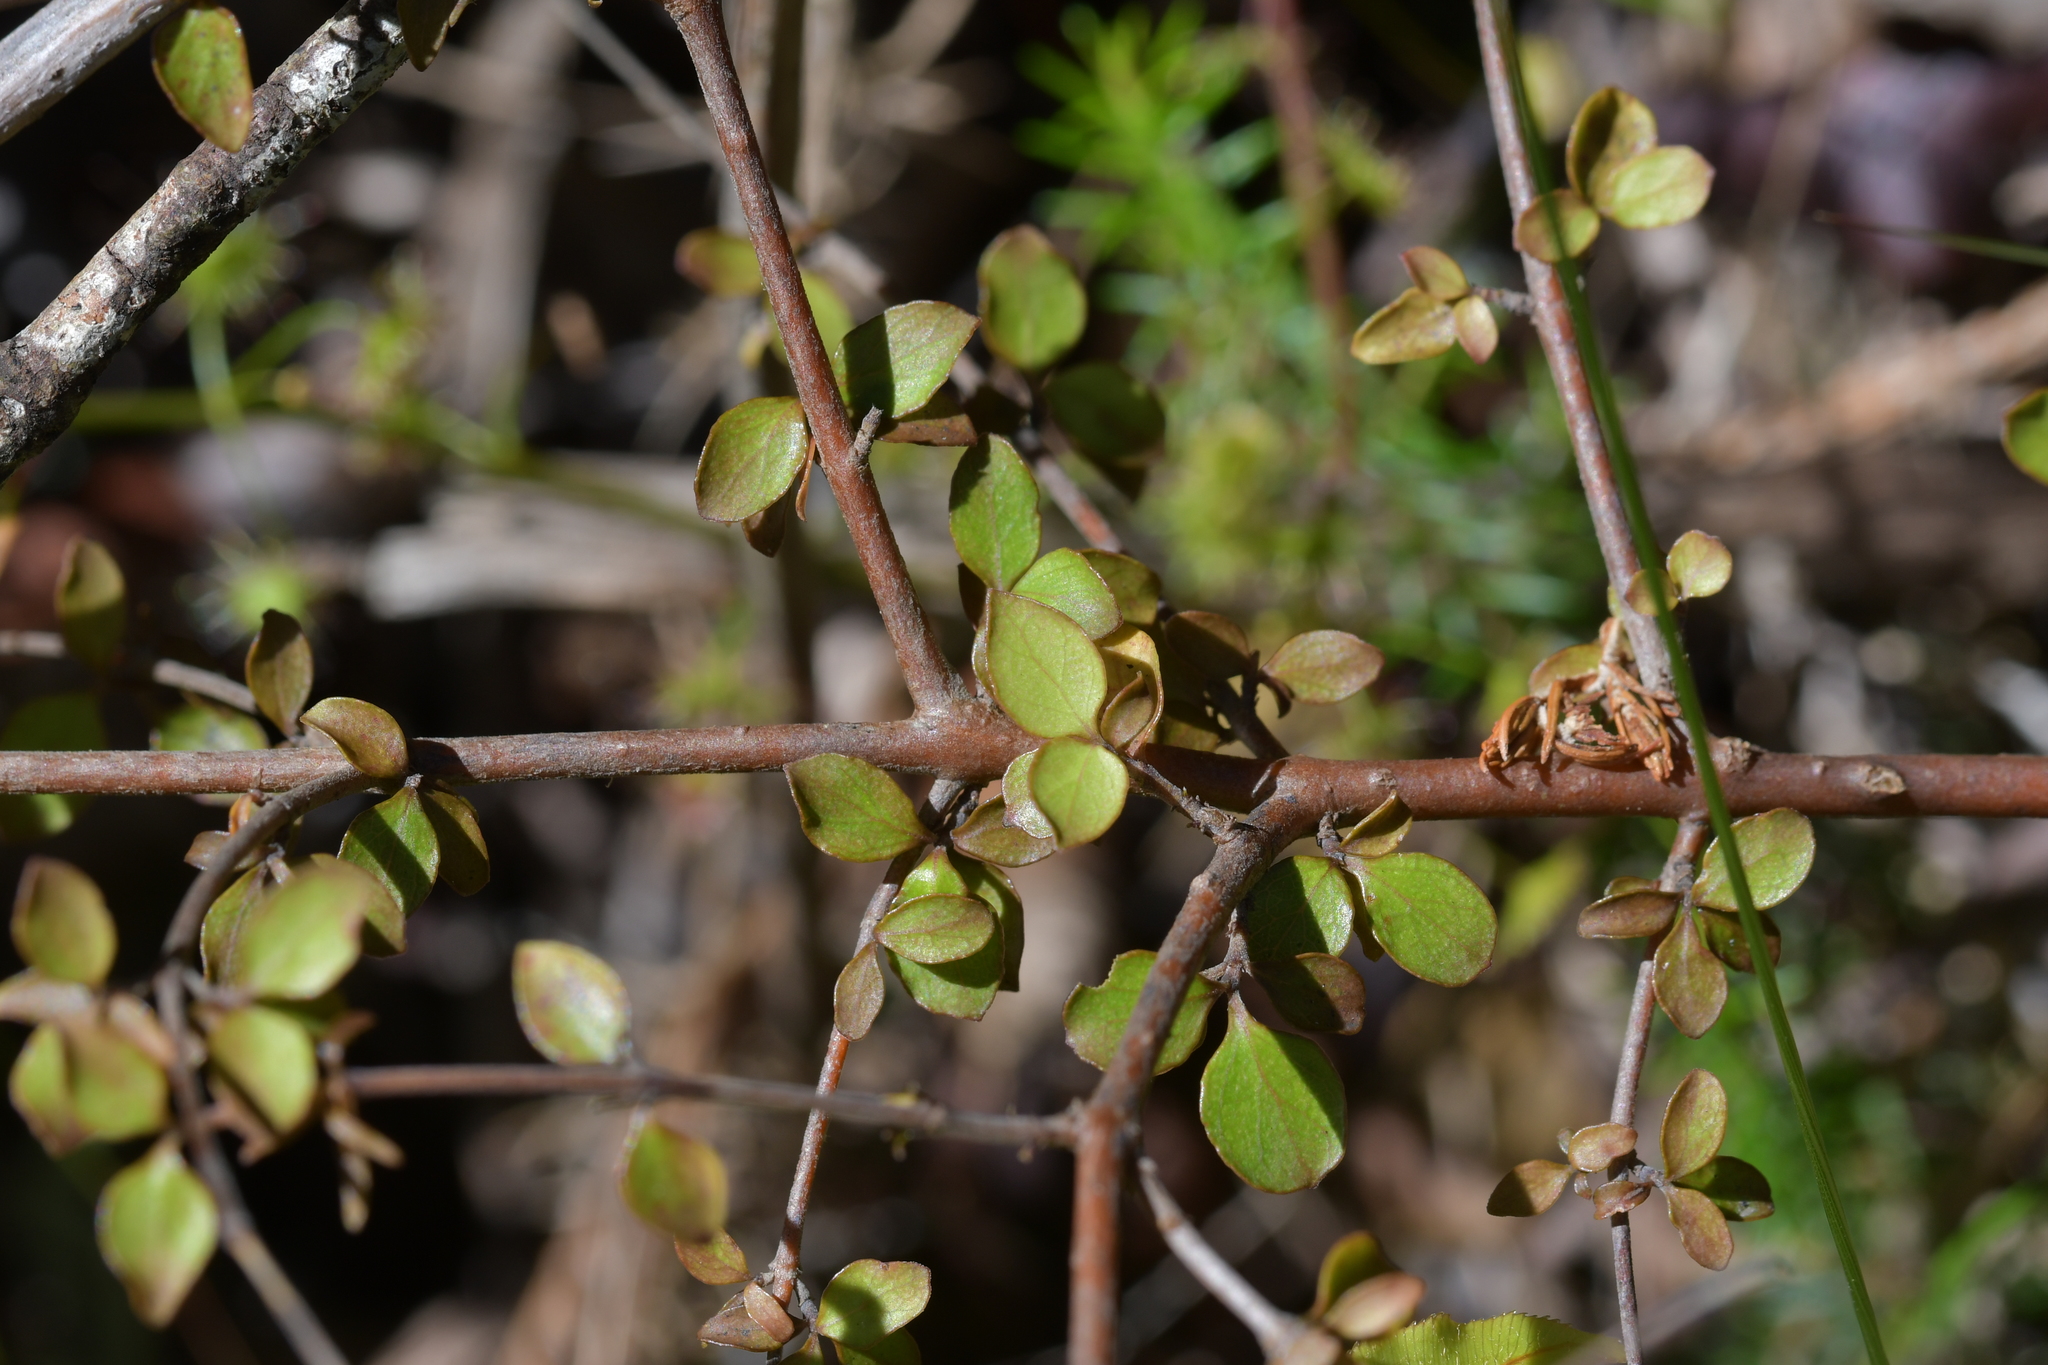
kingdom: Plantae
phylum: Tracheophyta
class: Magnoliopsida
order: Gentianales
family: Rubiaceae
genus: Coprosma
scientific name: Coprosma rhamnoides
